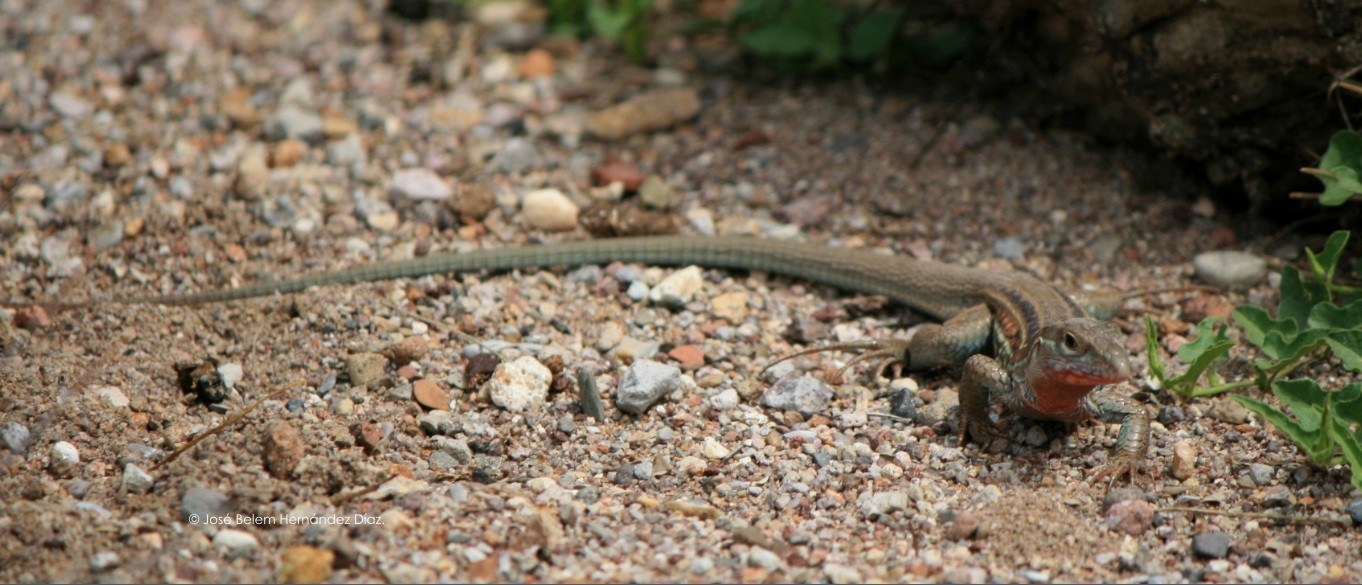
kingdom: Animalia
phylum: Chordata
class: Squamata
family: Teiidae
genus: Aspidoscelis
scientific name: Aspidoscelis gularis
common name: Eastern spotted whiptail
